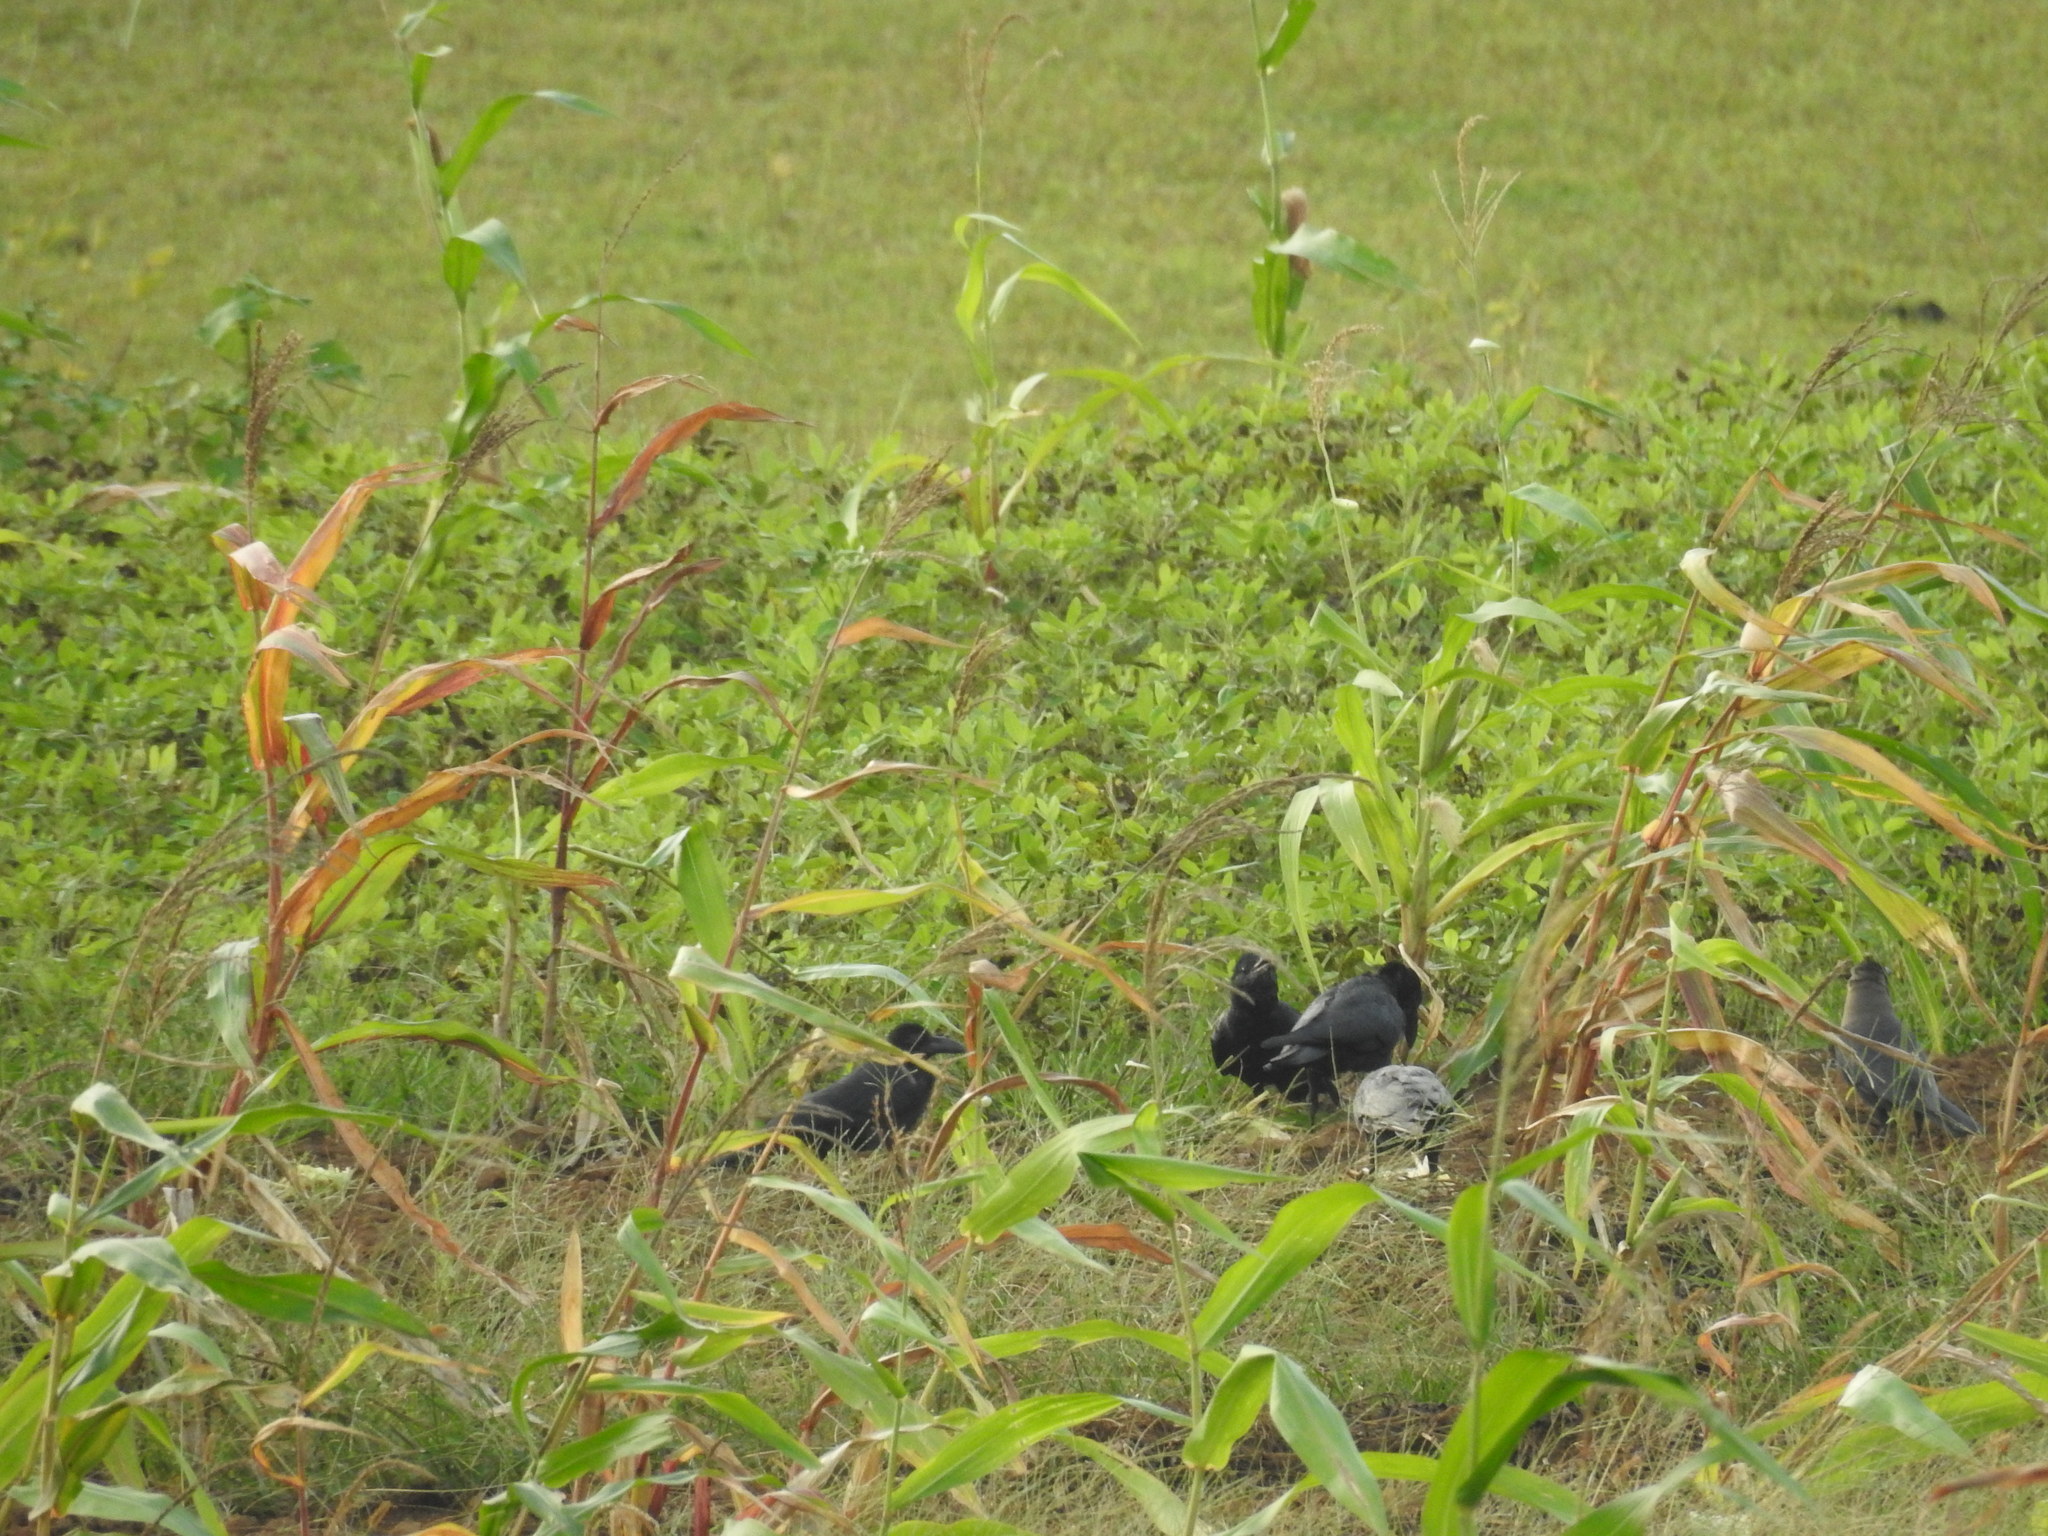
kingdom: Animalia
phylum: Chordata
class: Aves
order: Passeriformes
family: Corvidae
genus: Corvus
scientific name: Corvus macrorhynchos
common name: Large-billed crow
